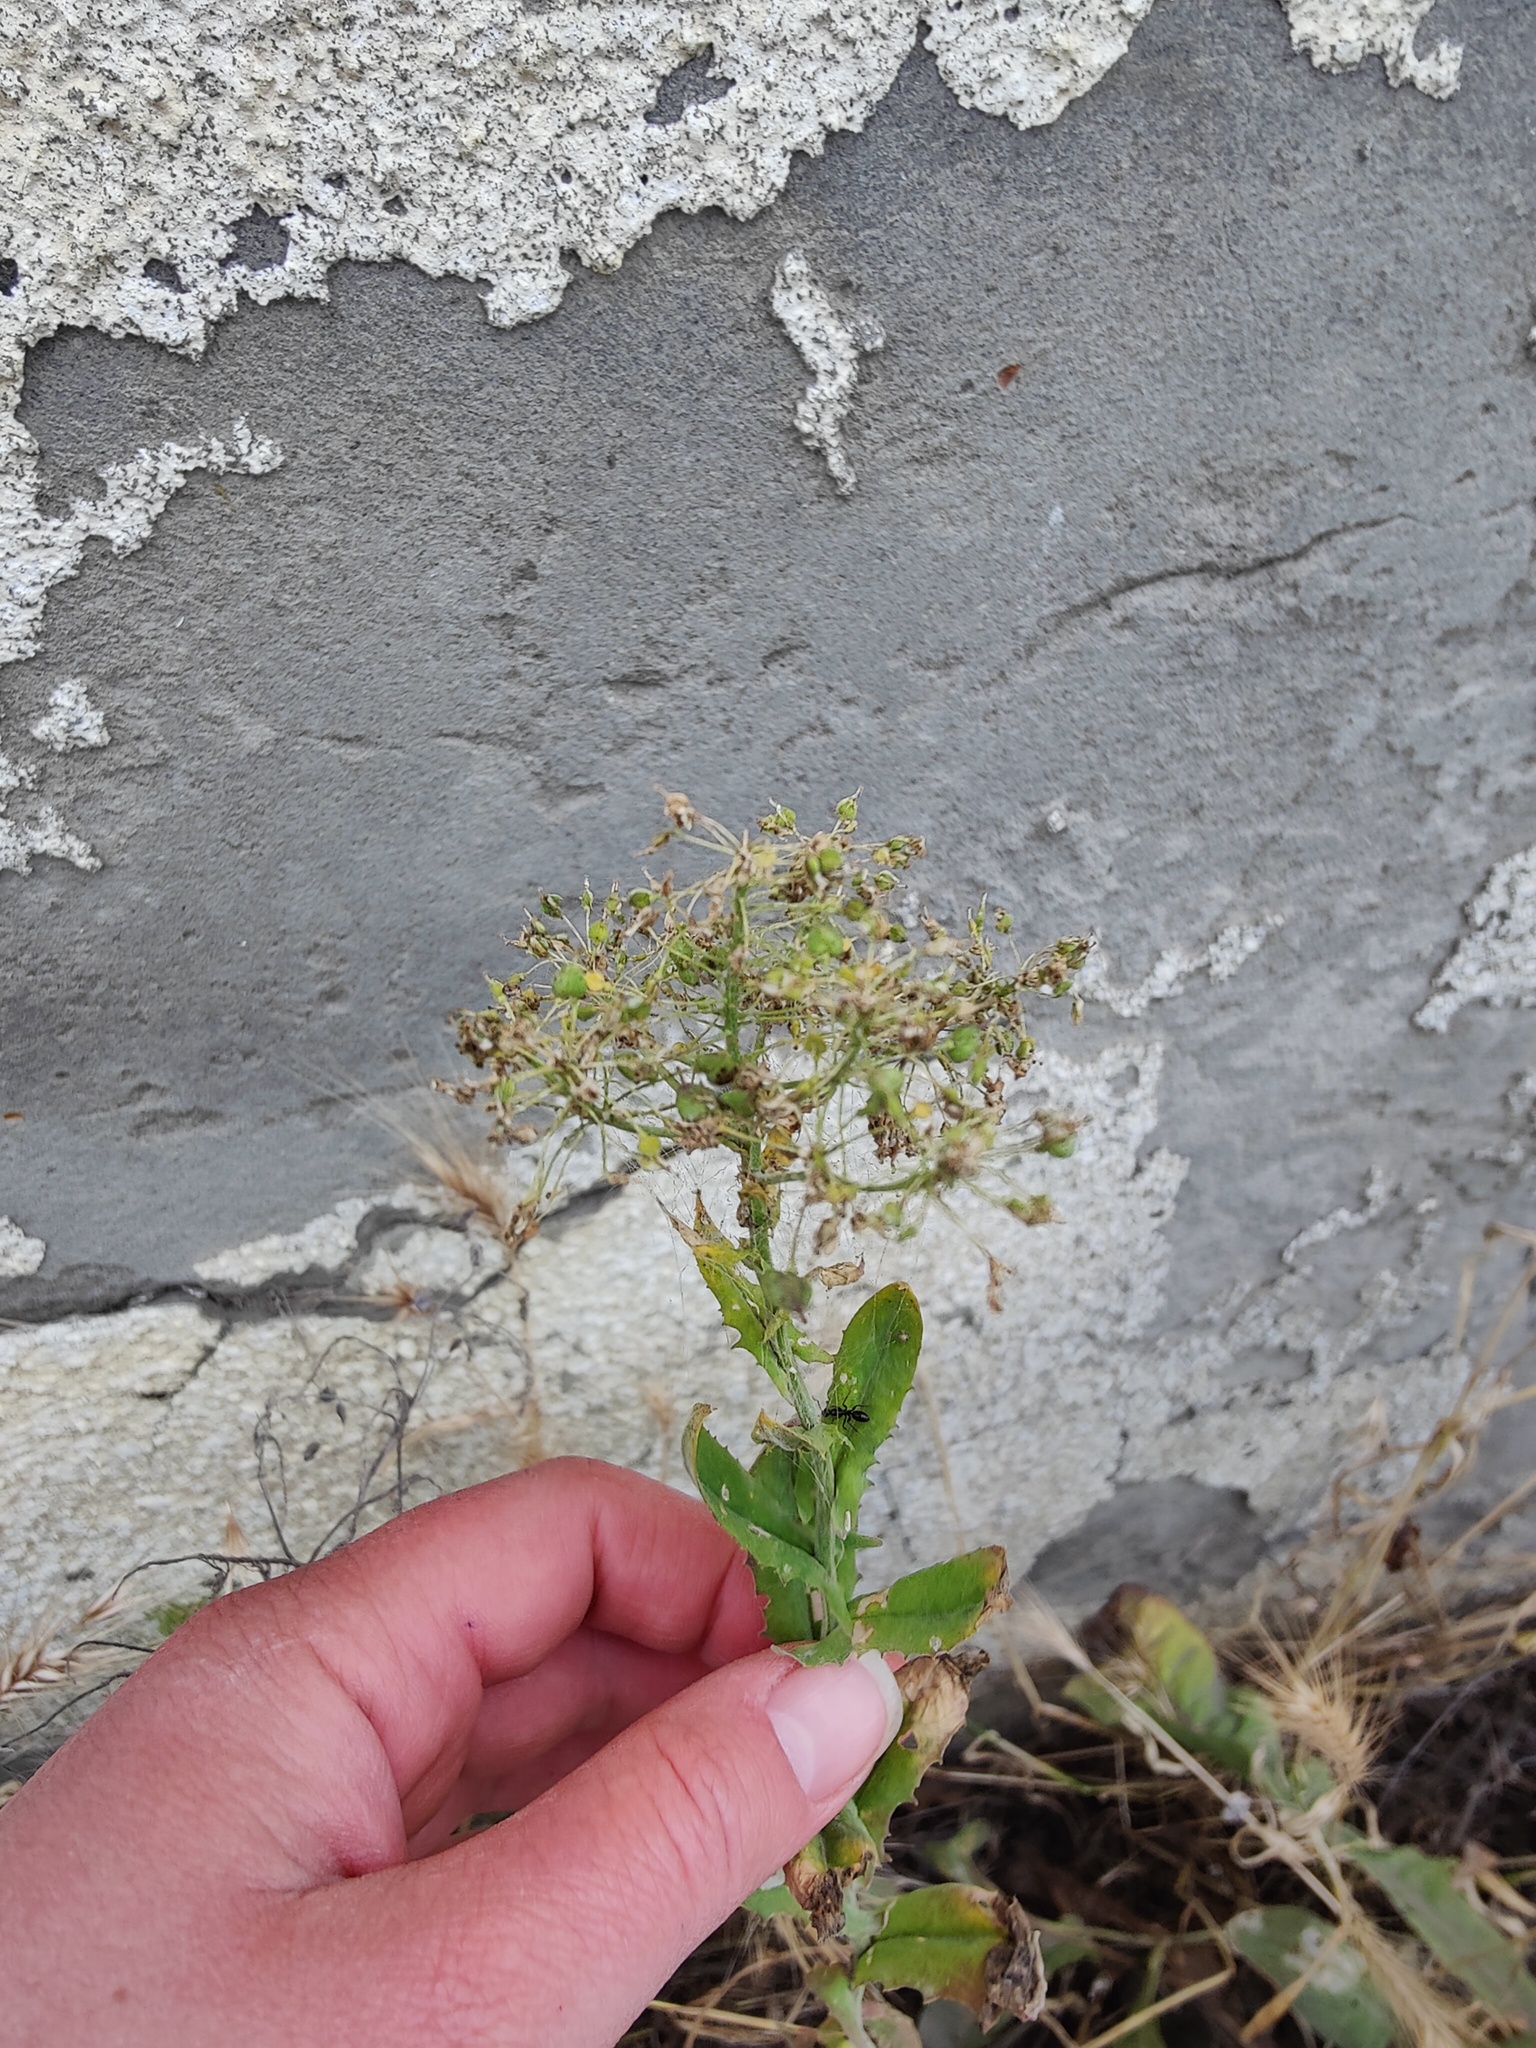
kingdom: Plantae
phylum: Tracheophyta
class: Magnoliopsida
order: Brassicales
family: Brassicaceae
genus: Lepidium
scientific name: Lepidium draba
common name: Hoary cress
